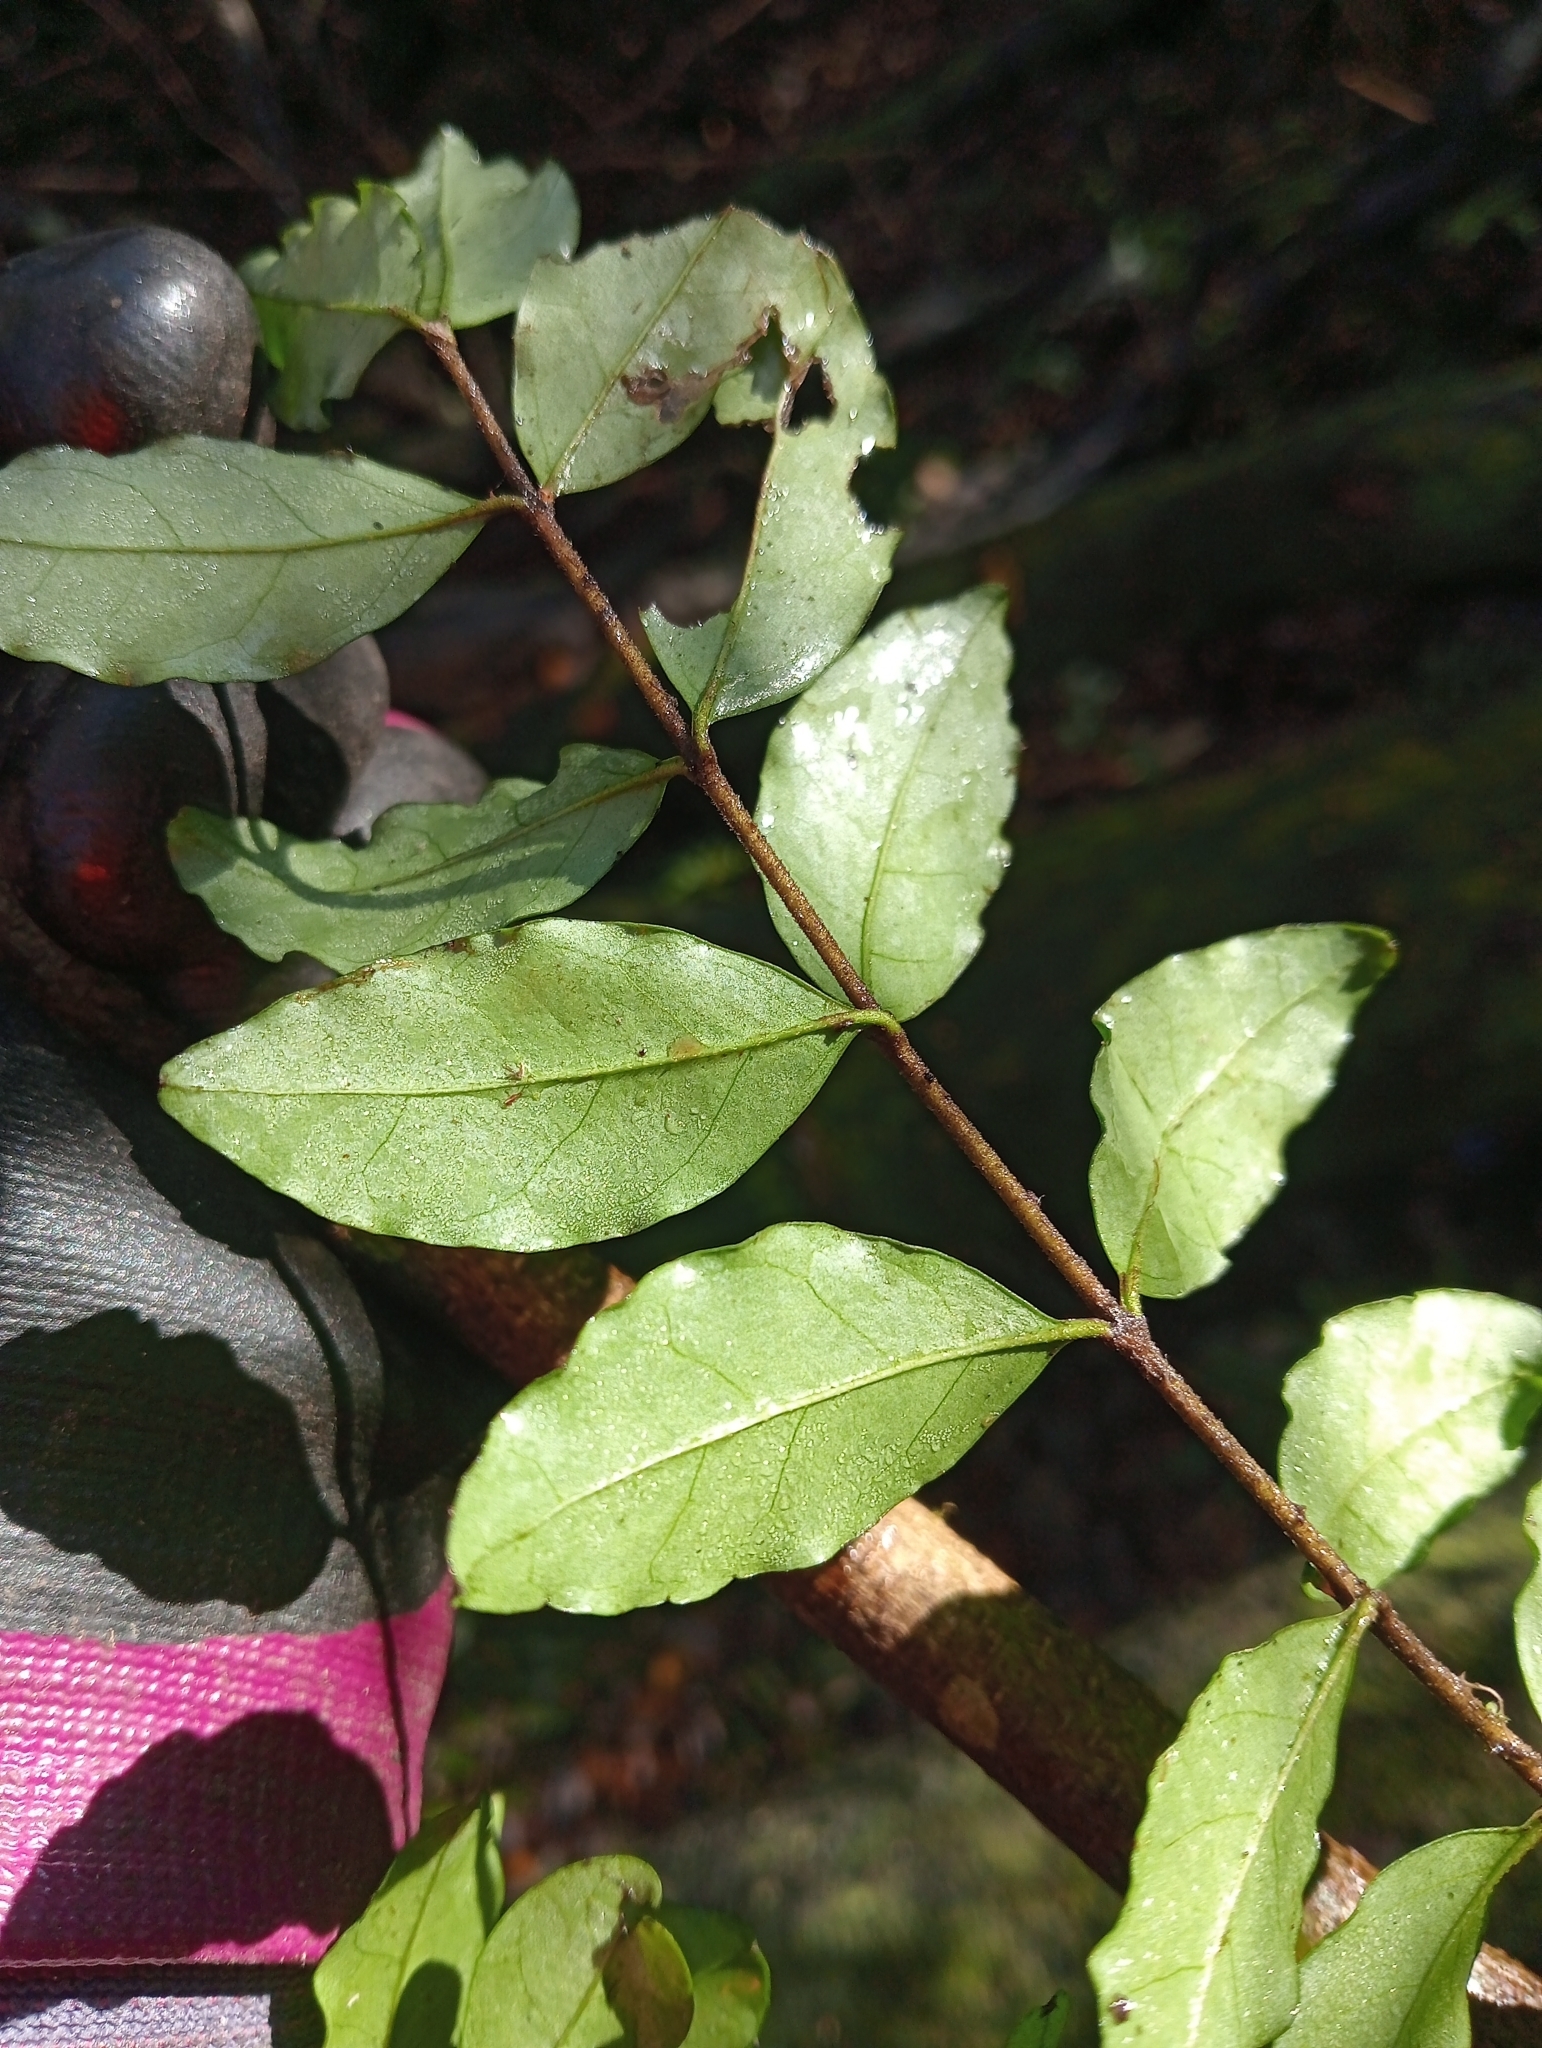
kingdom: Plantae
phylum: Tracheophyta
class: Magnoliopsida
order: Lamiales
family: Oleaceae
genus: Ligustrum
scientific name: Ligustrum sinense
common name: Chinese privet
